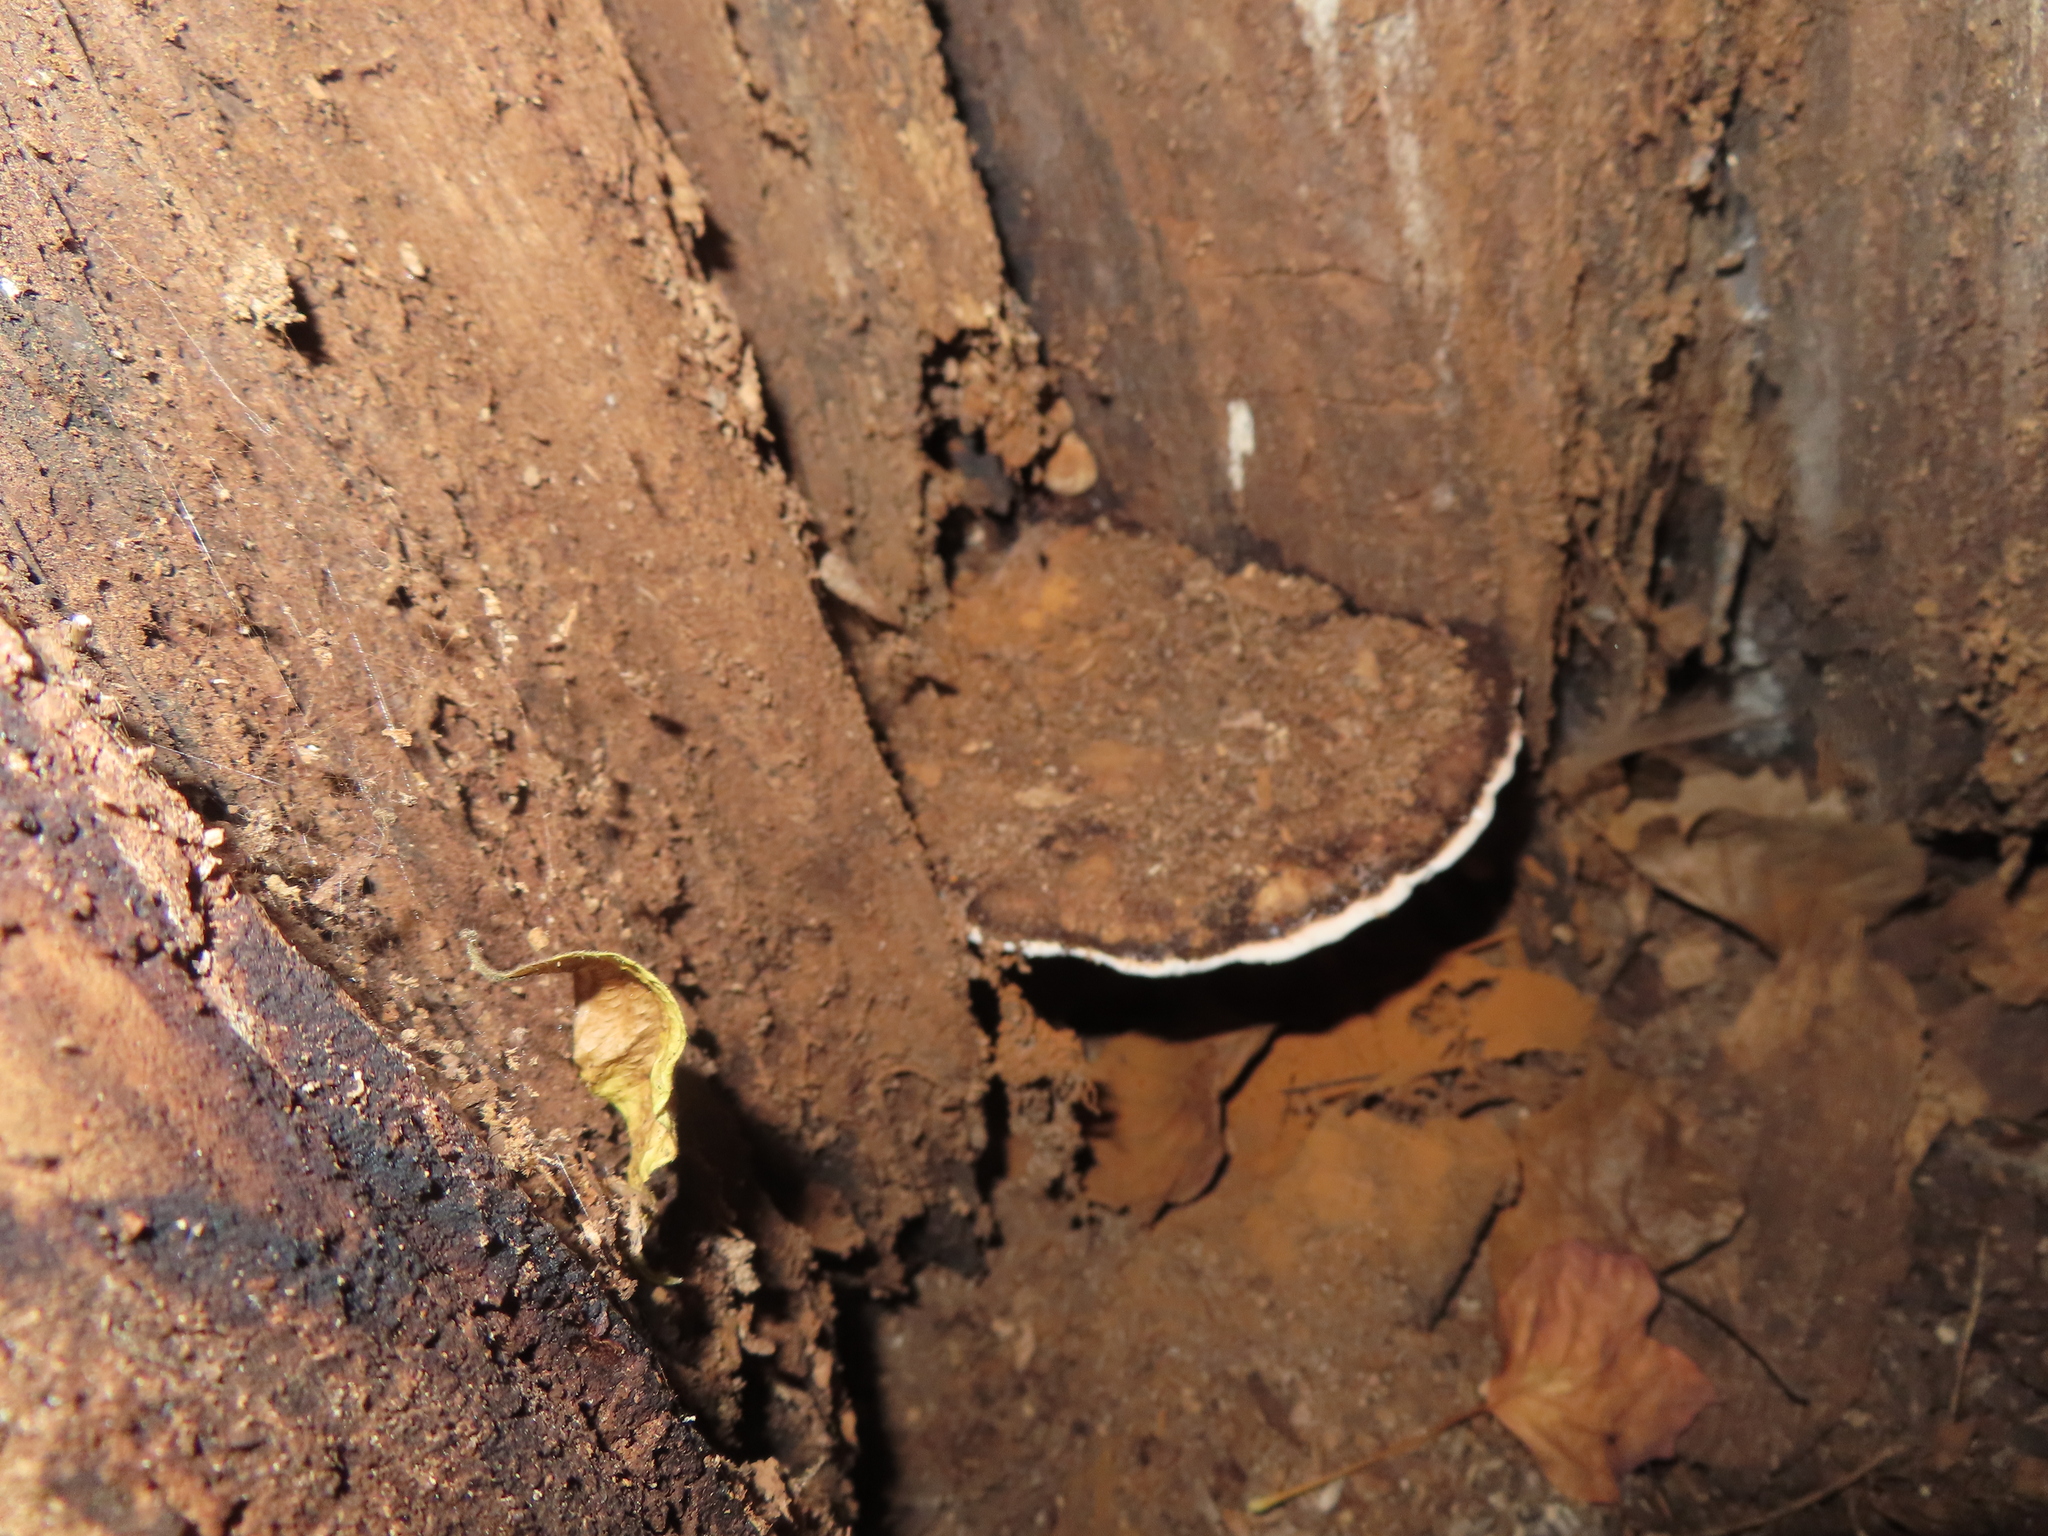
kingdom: Fungi
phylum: Basidiomycota
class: Agaricomycetes
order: Polyporales
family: Polyporaceae
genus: Ganoderma
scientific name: Ganoderma lobatum
